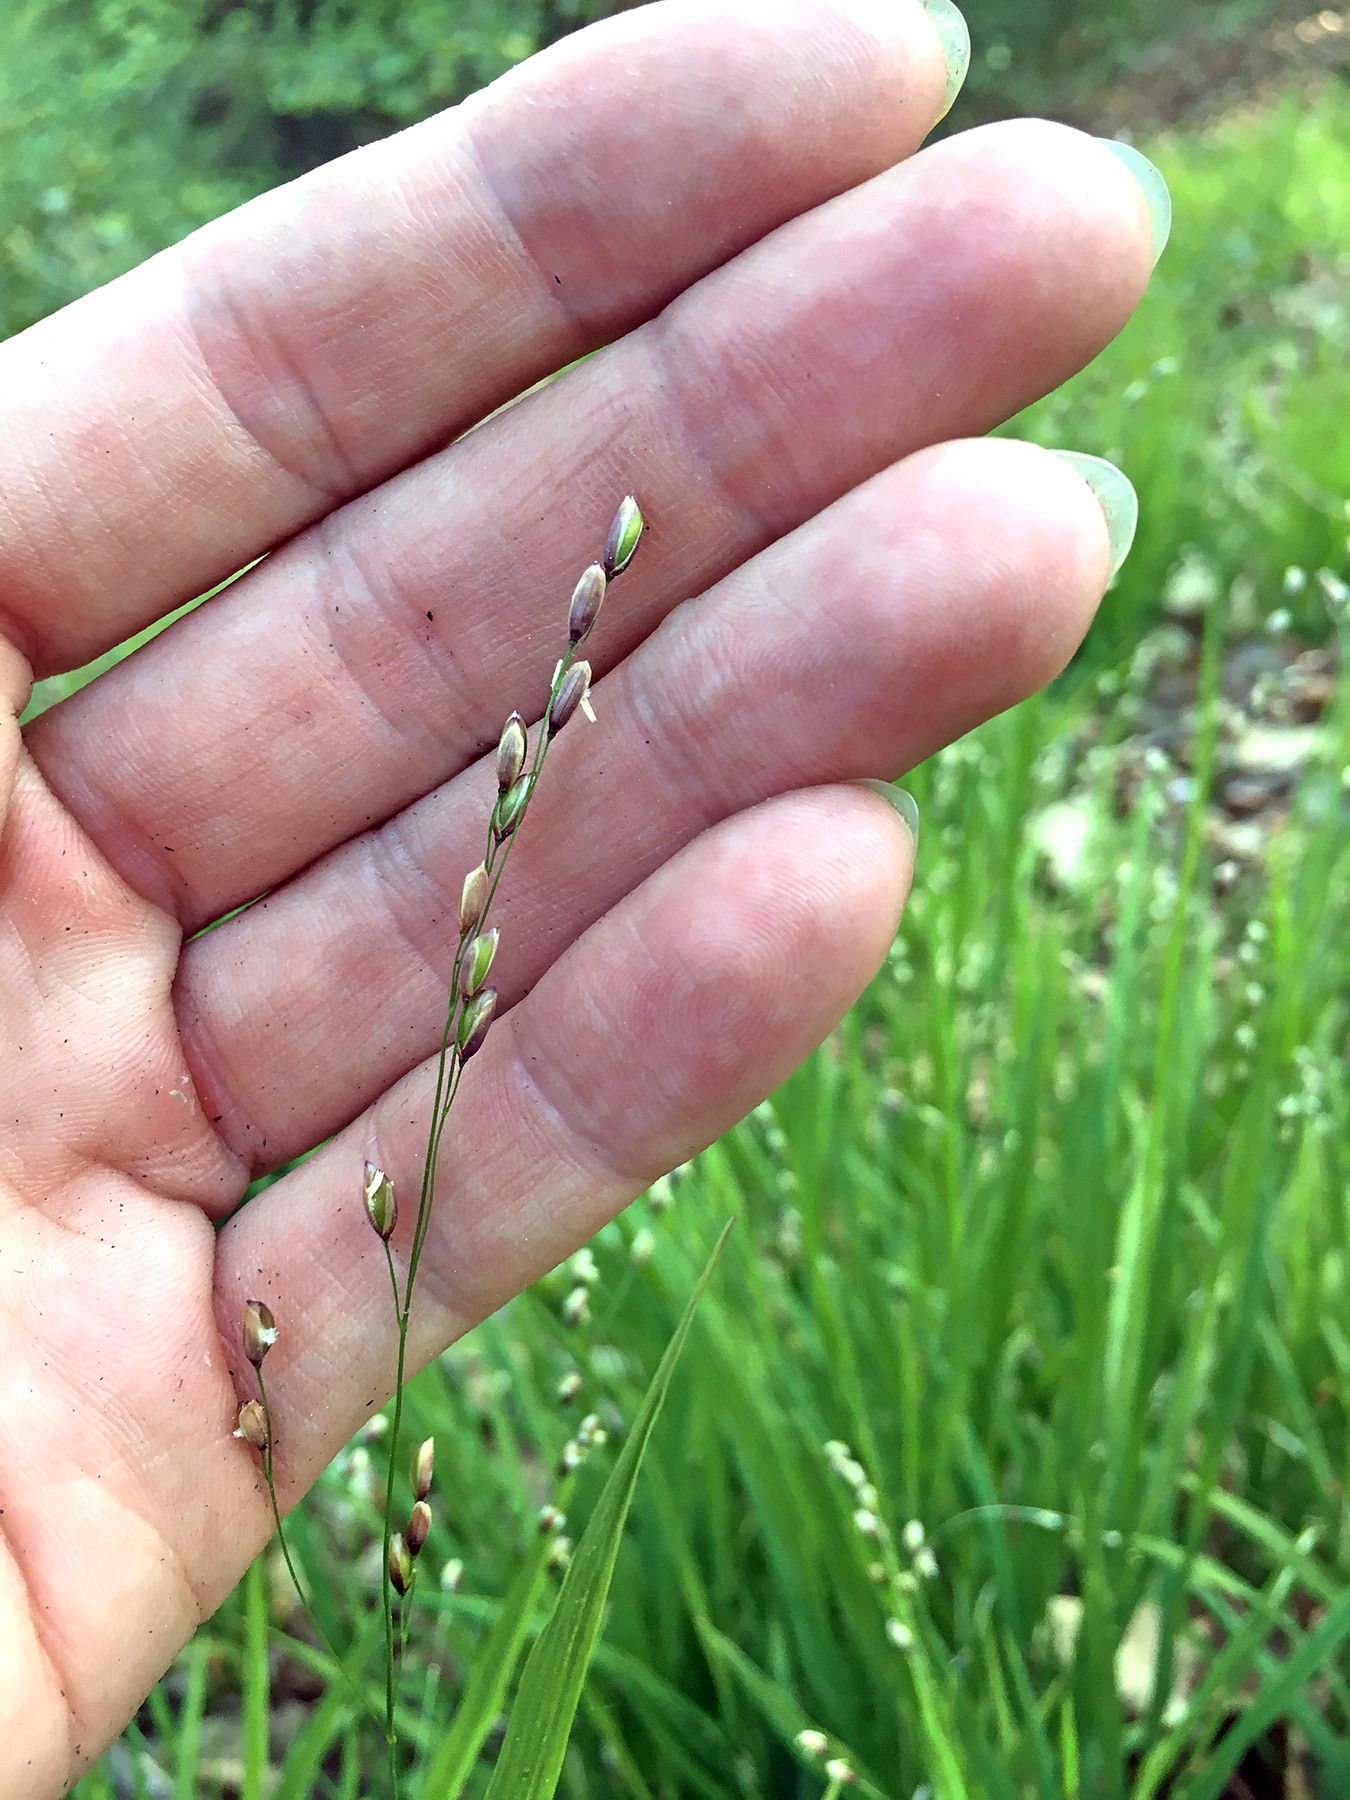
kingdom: Plantae
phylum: Tracheophyta
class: Liliopsida
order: Poales
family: Poaceae
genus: Melica
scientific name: Melica uniflora
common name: Wood melick
